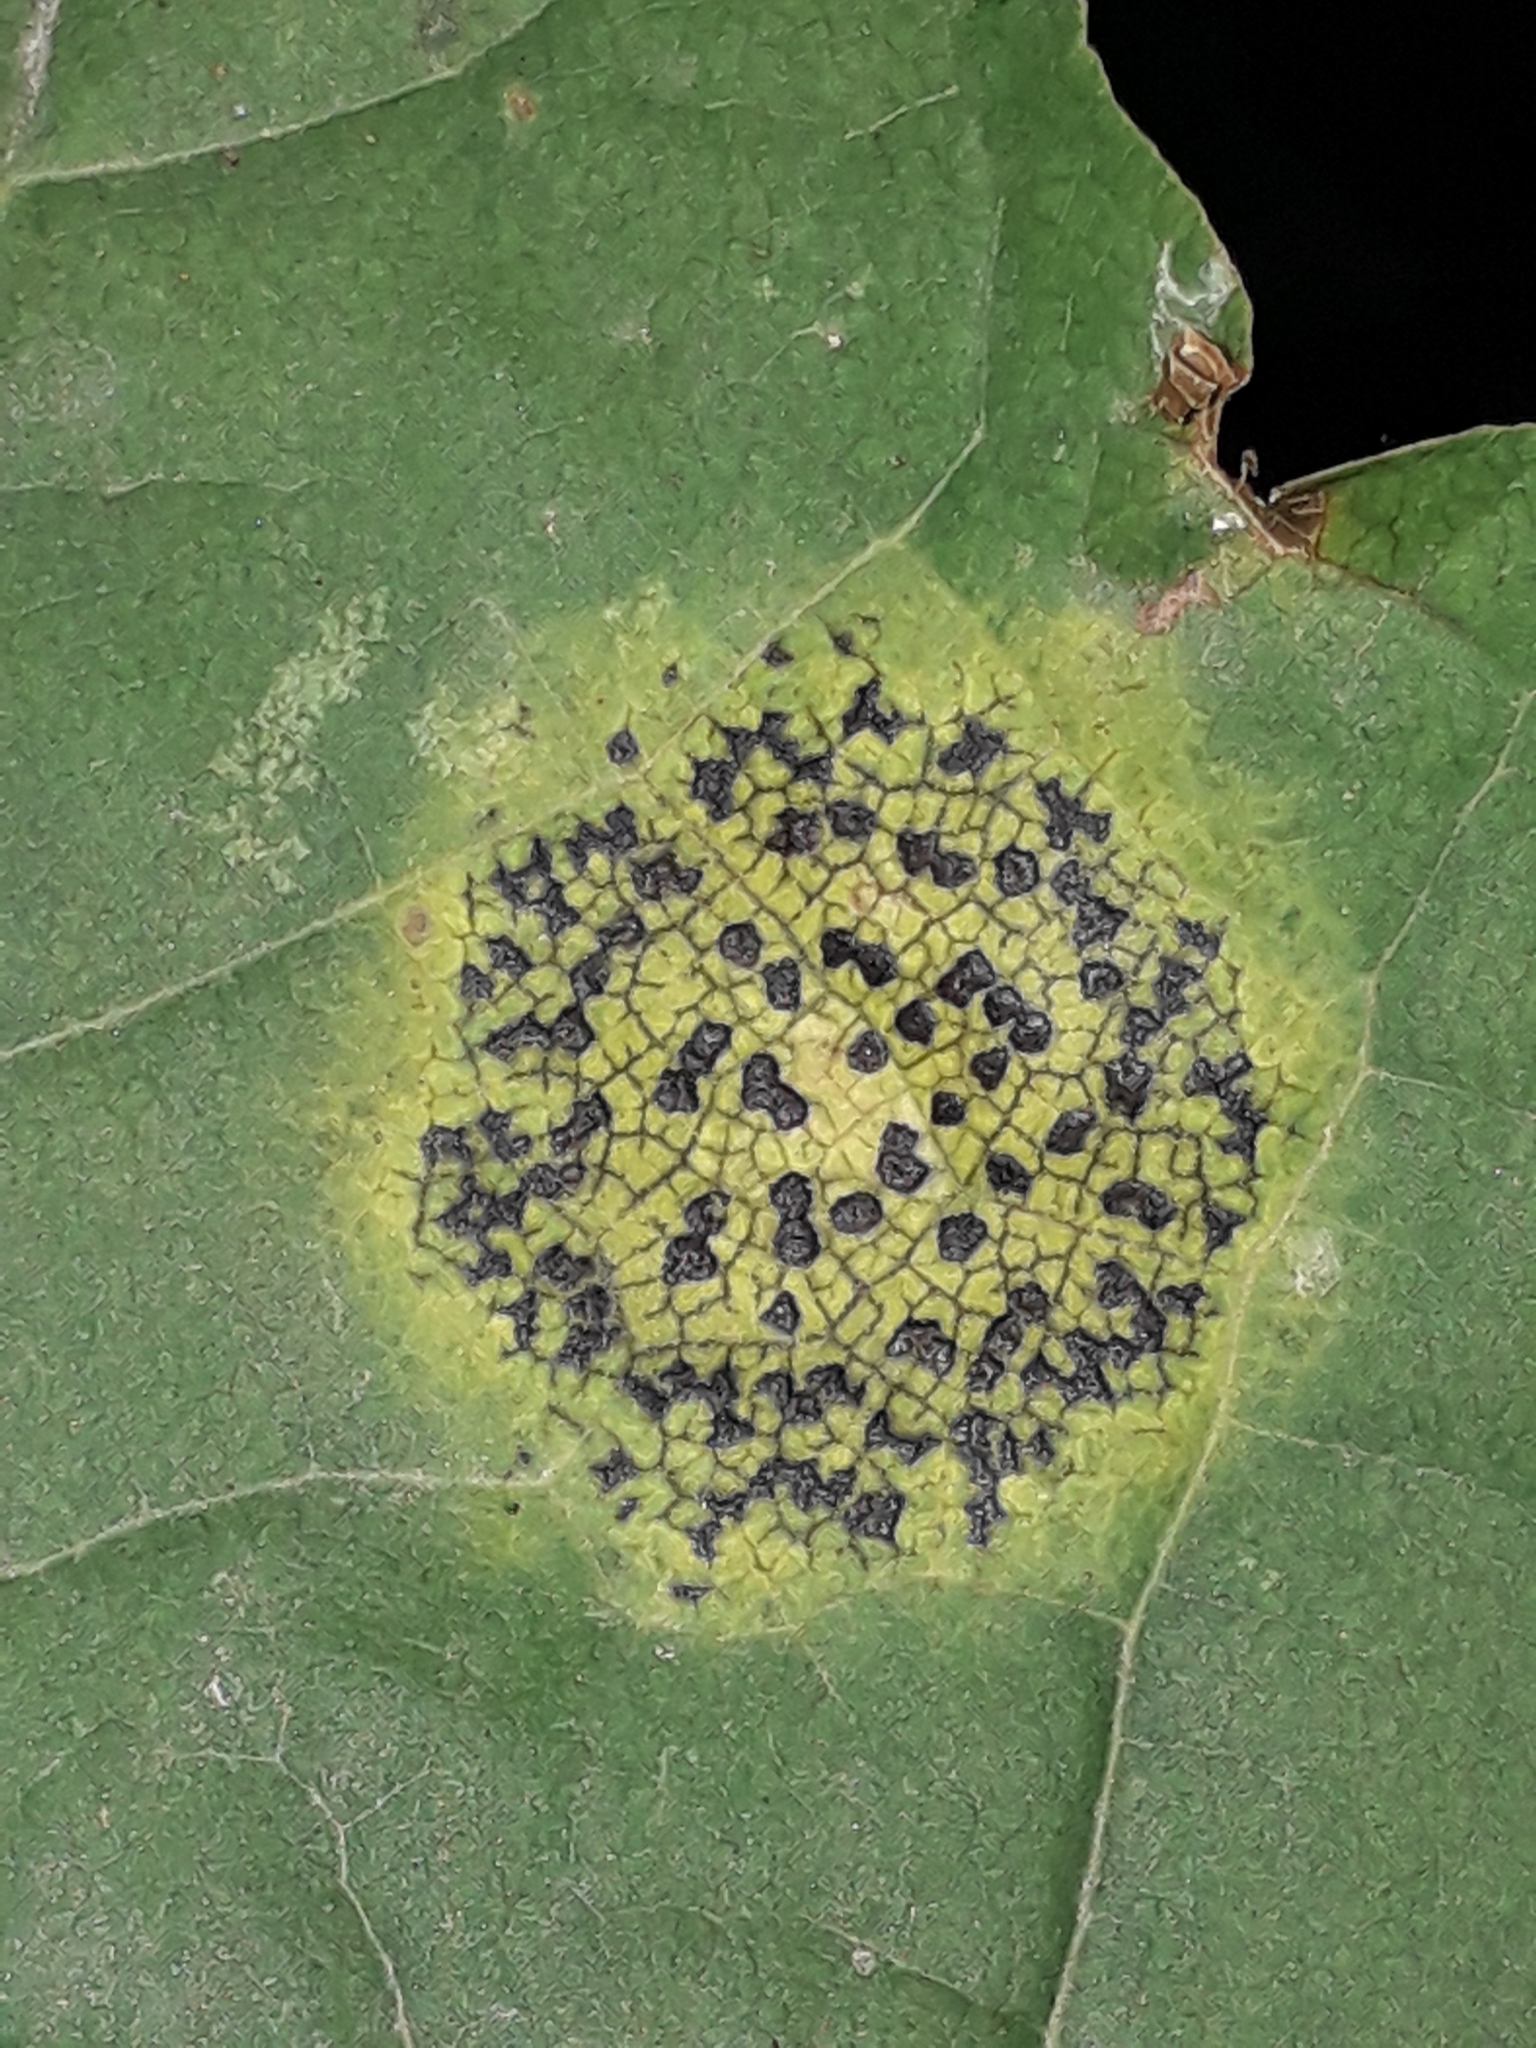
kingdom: Fungi
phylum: Ascomycota
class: Leotiomycetes
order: Rhytismatales
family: Rhytismataceae
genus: Rhytisma
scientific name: Rhytisma acerinum
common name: European tar spot
